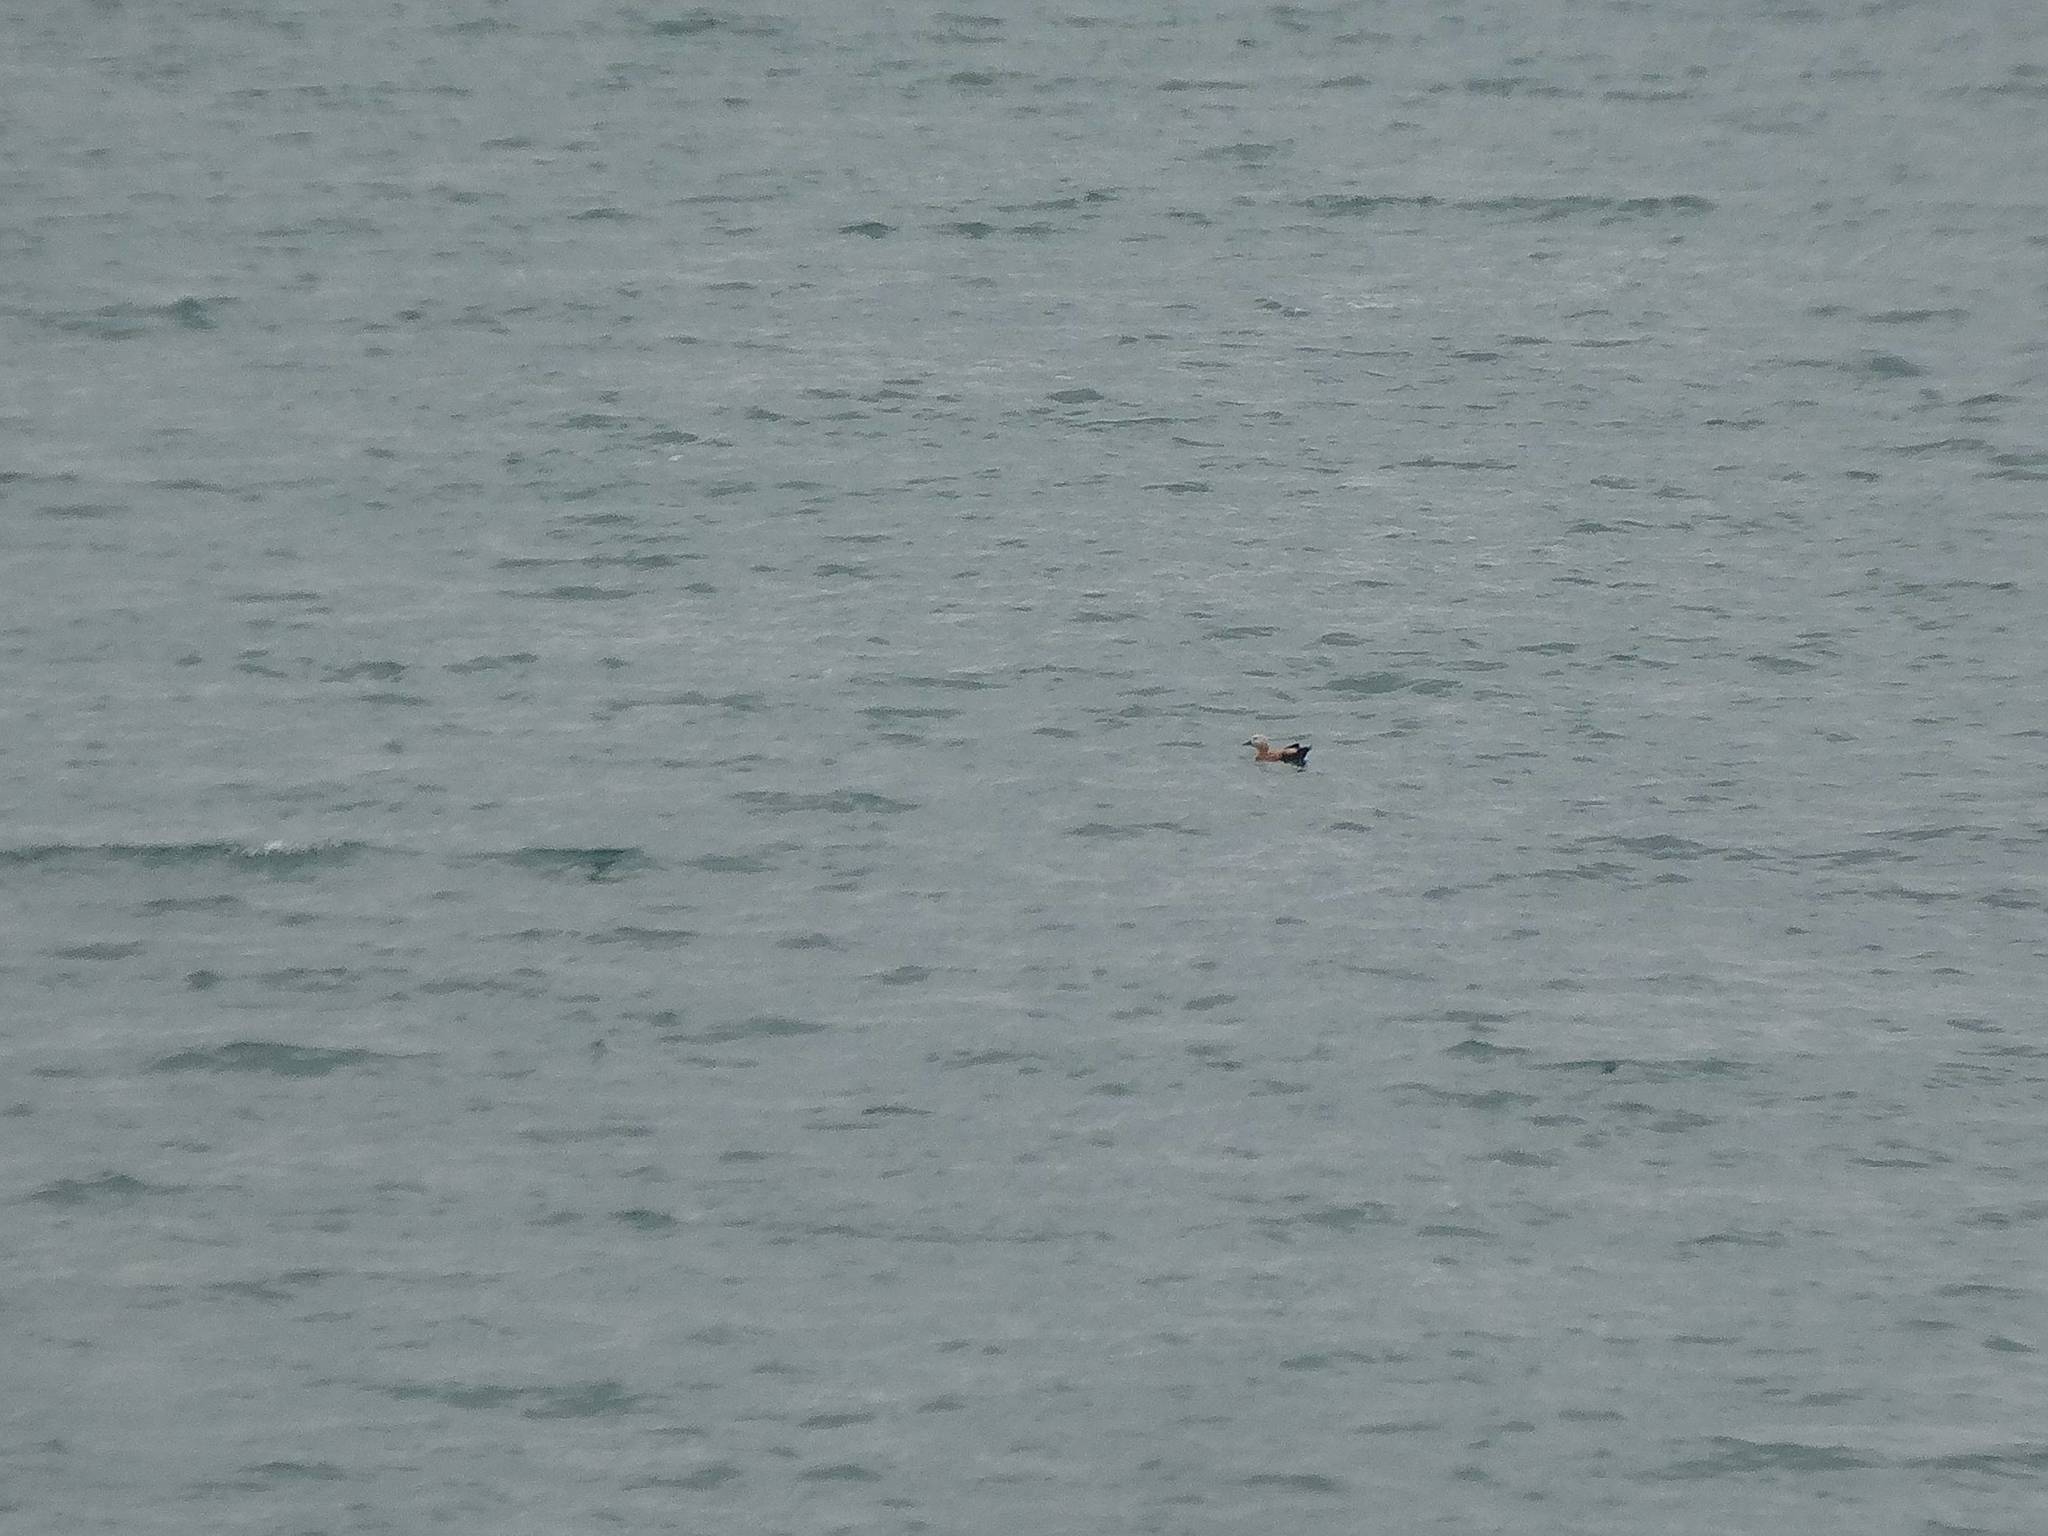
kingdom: Animalia
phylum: Chordata
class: Aves
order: Anseriformes
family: Anatidae
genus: Tadorna
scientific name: Tadorna ferruginea
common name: Ruddy shelduck
